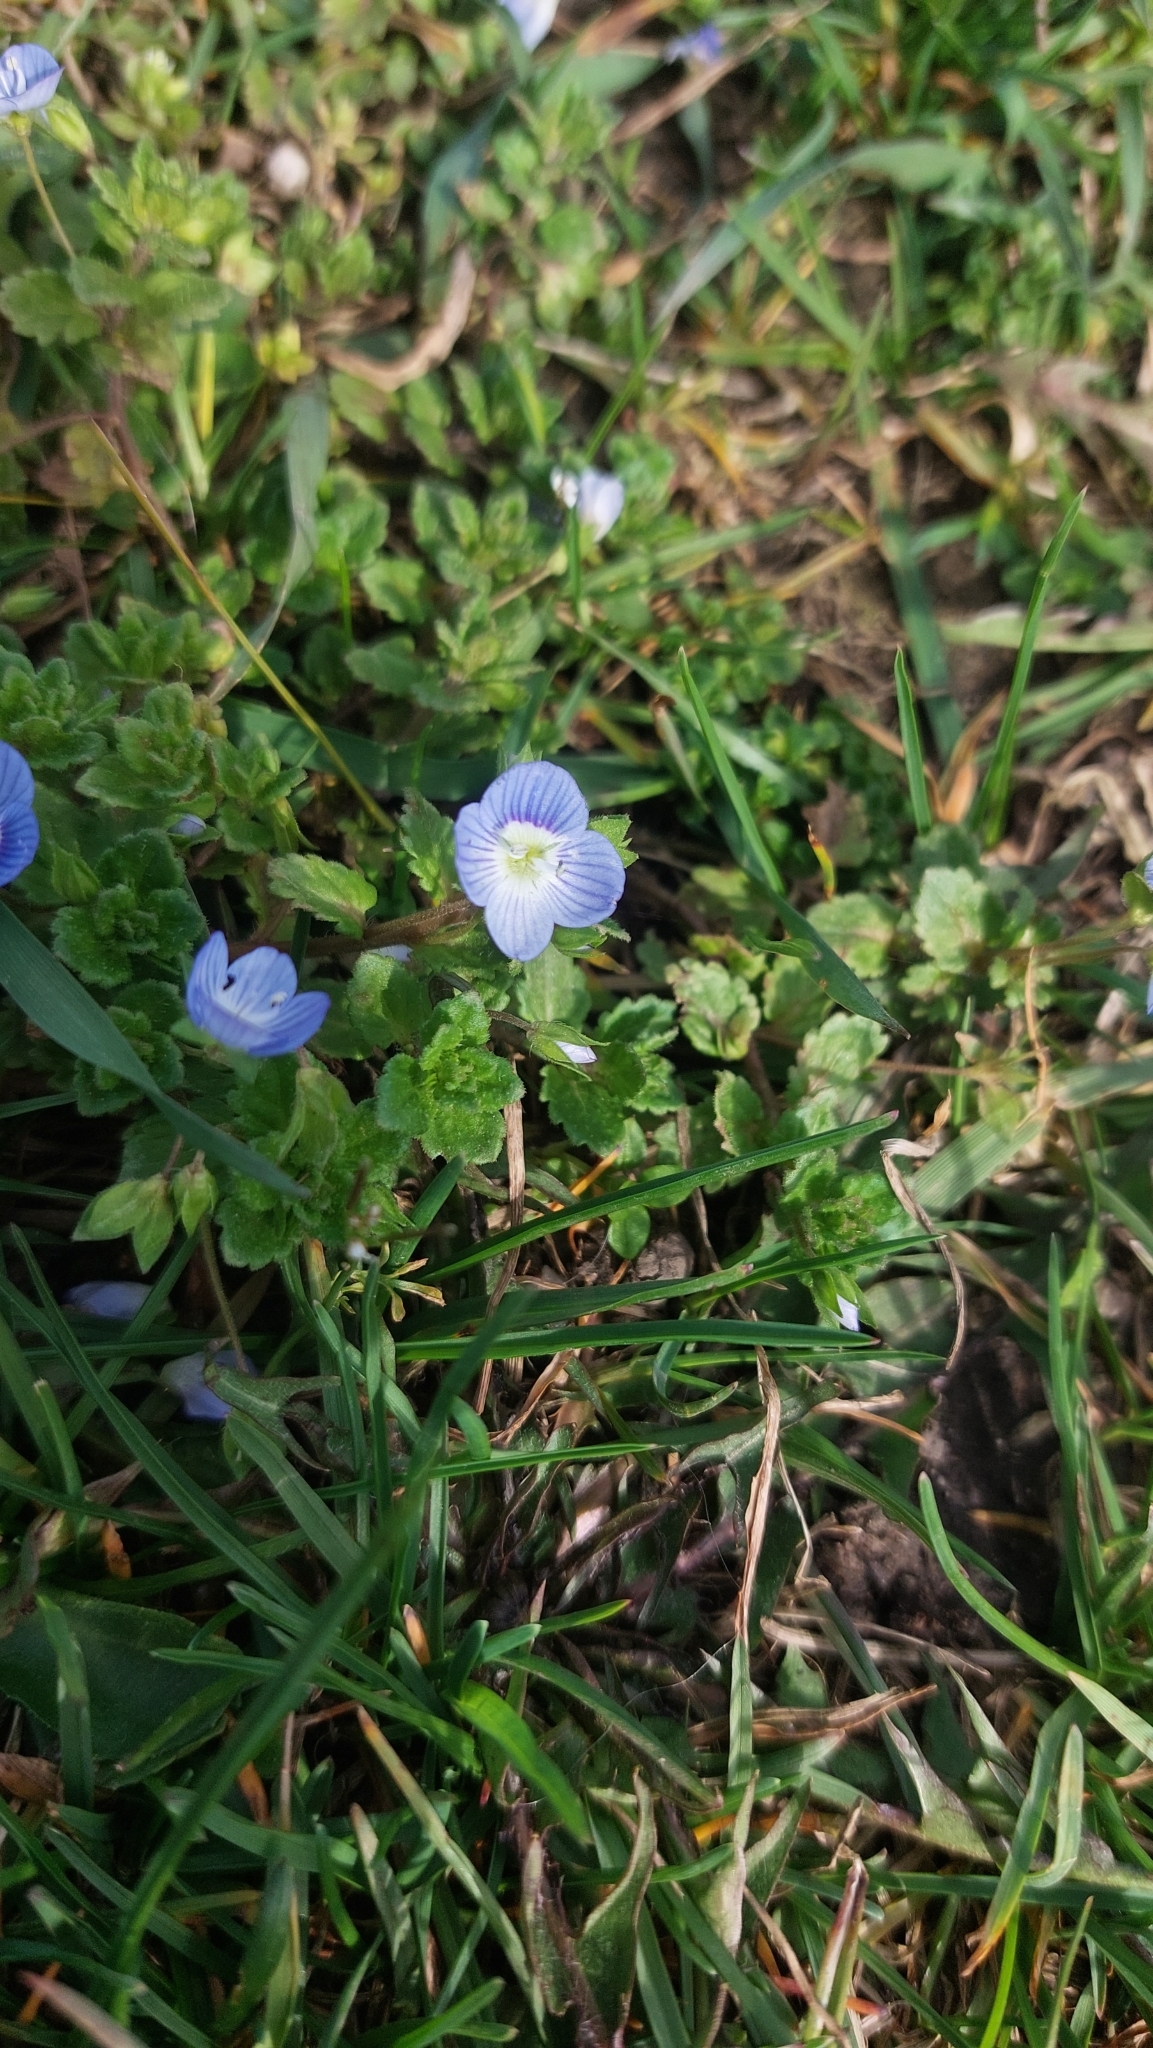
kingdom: Plantae
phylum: Tracheophyta
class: Magnoliopsida
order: Lamiales
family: Plantaginaceae
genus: Veronica
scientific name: Veronica persica
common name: Common field-speedwell
